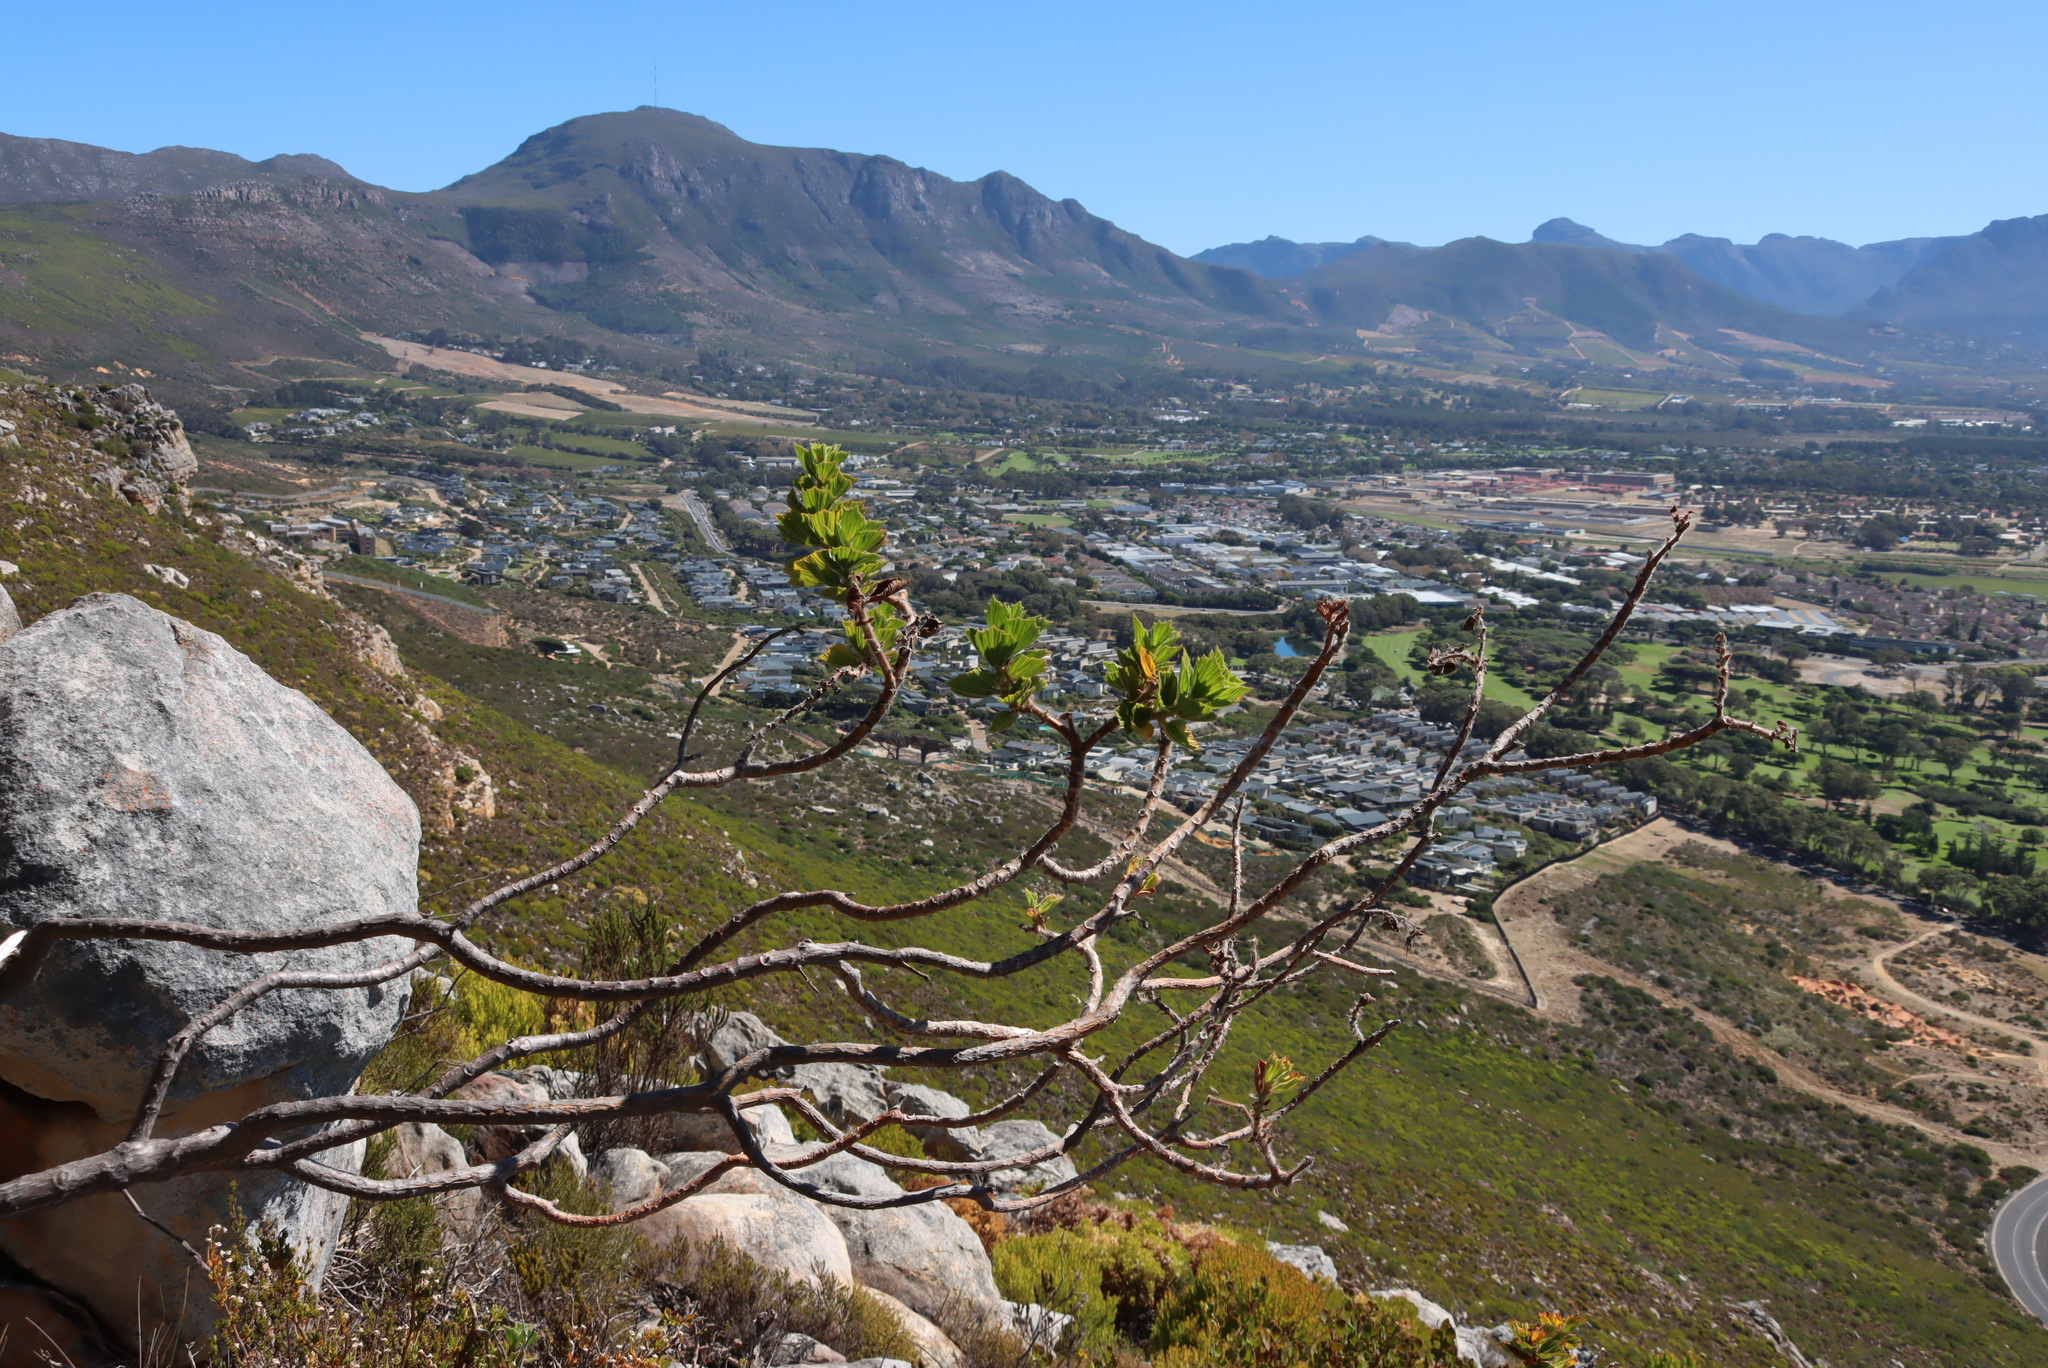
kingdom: Plantae
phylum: Tracheophyta
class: Magnoliopsida
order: Geraniales
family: Geraniaceae
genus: Pelargonium
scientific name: Pelargonium cucullatum
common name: Tree pelargonium
